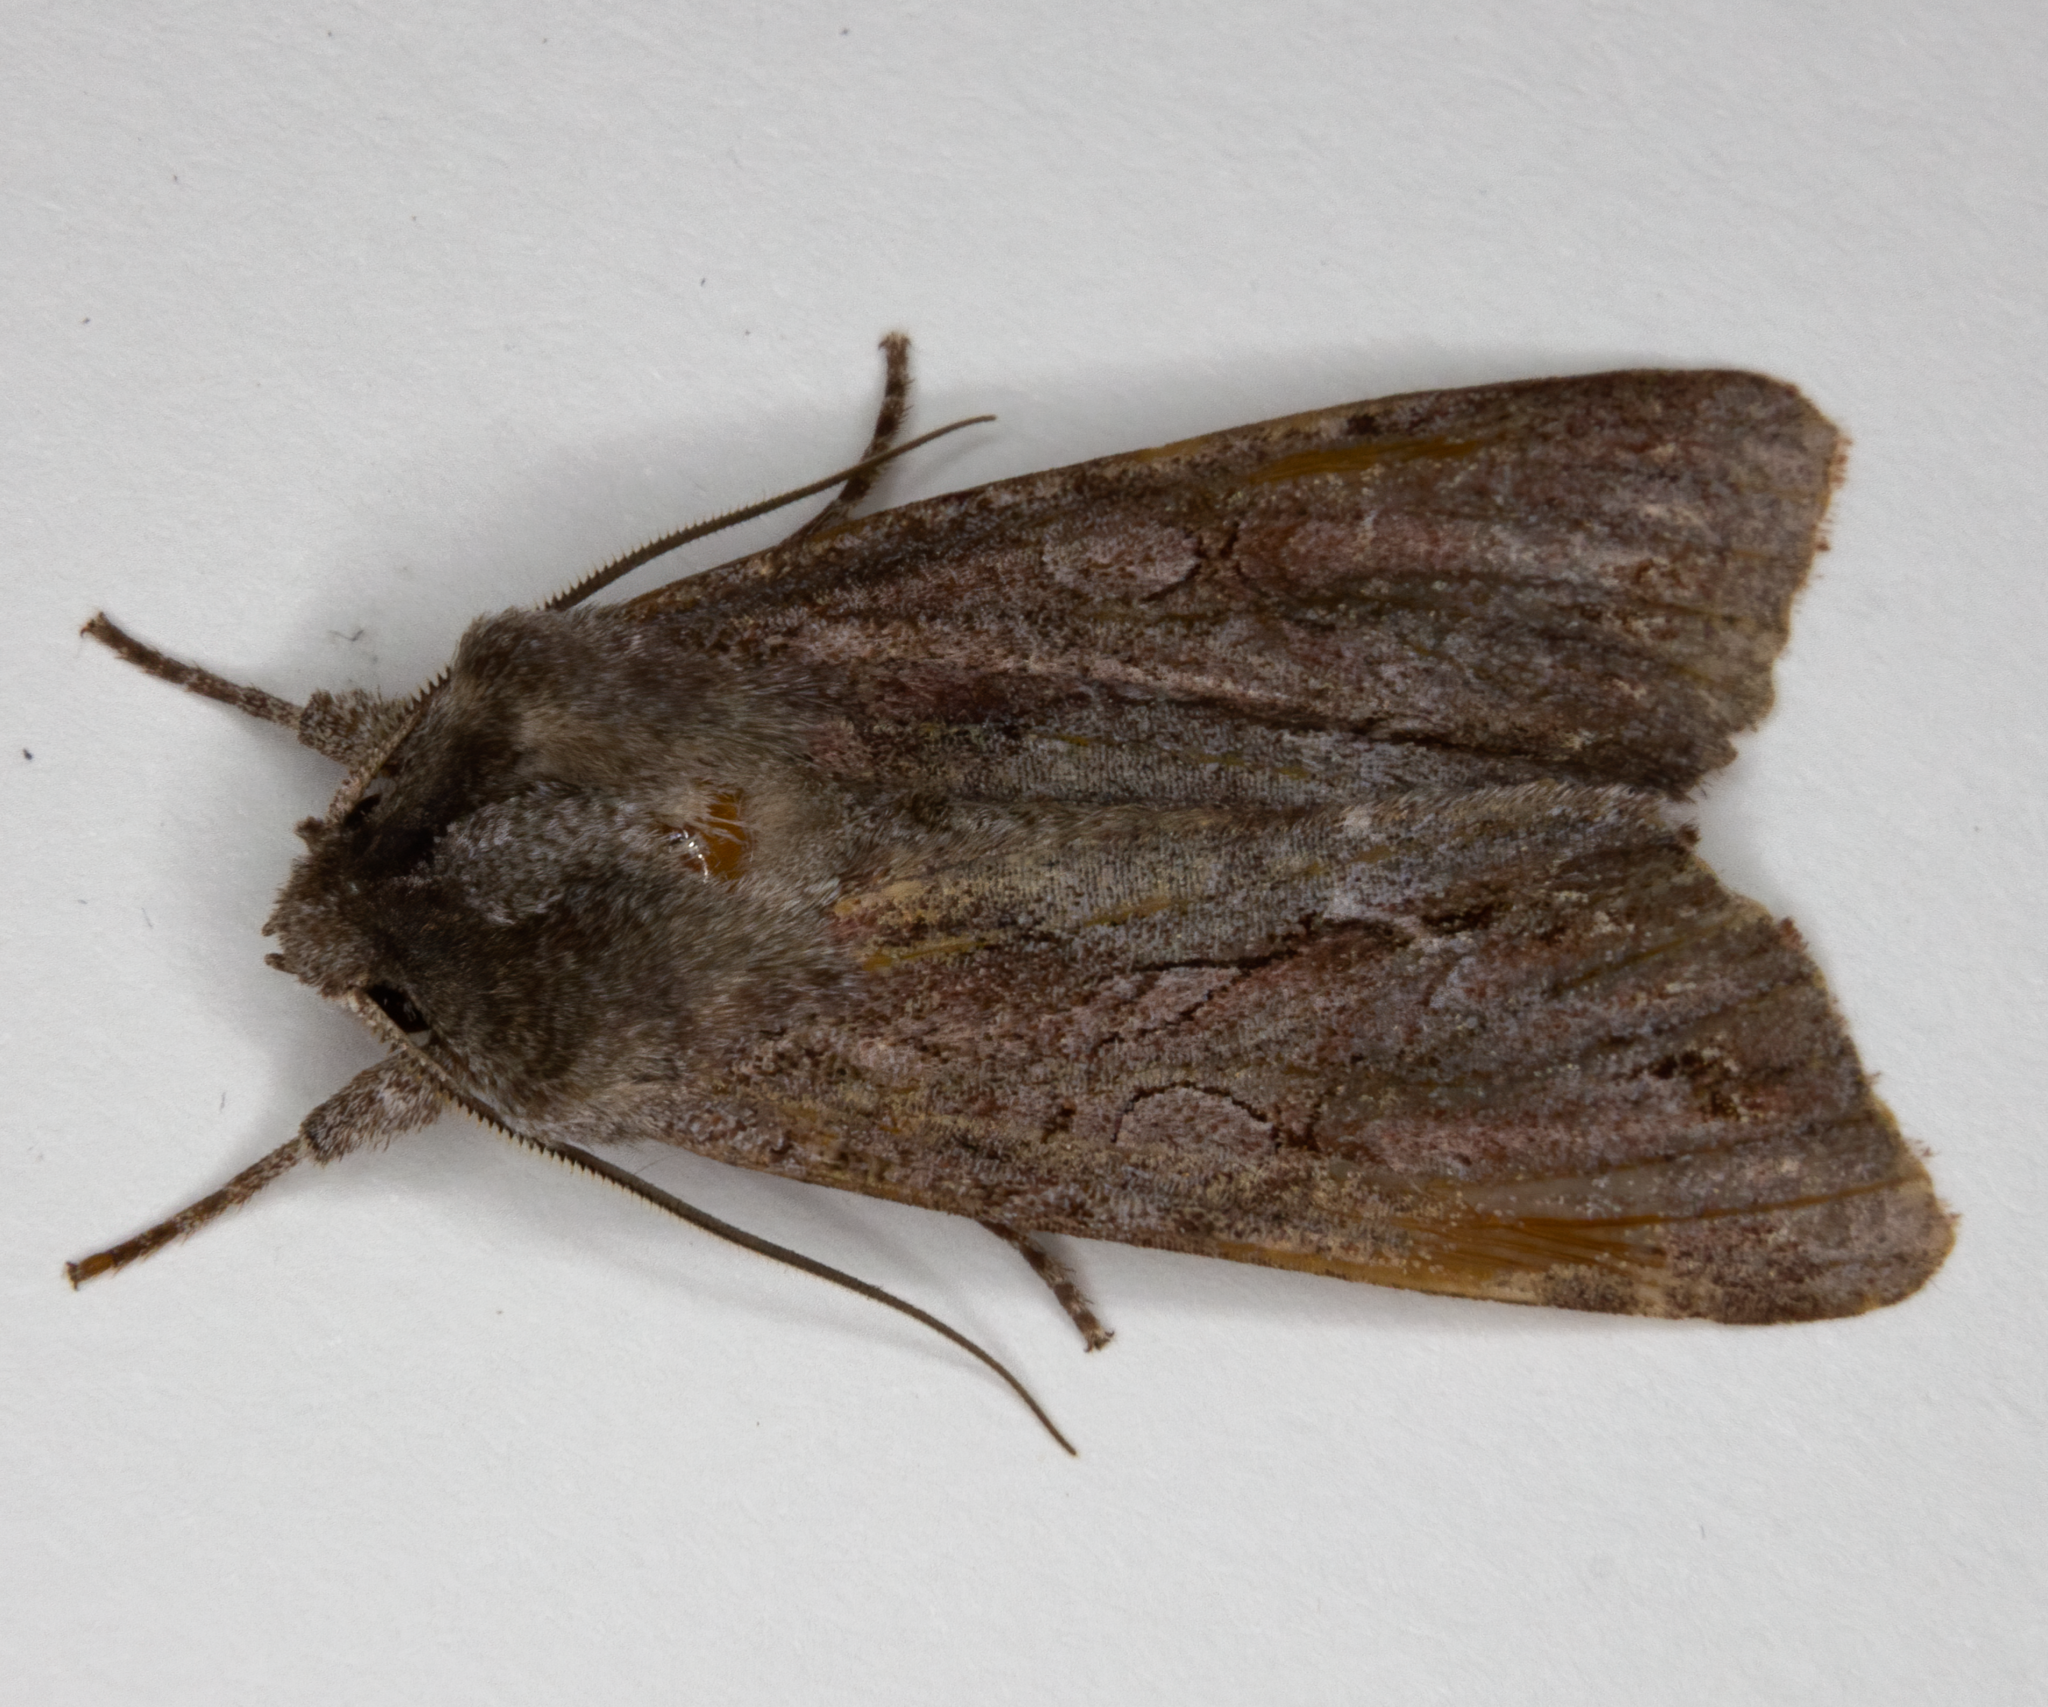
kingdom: Animalia
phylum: Arthropoda
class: Insecta
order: Lepidoptera
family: Noctuidae
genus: Ichneutica
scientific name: Ichneutica
